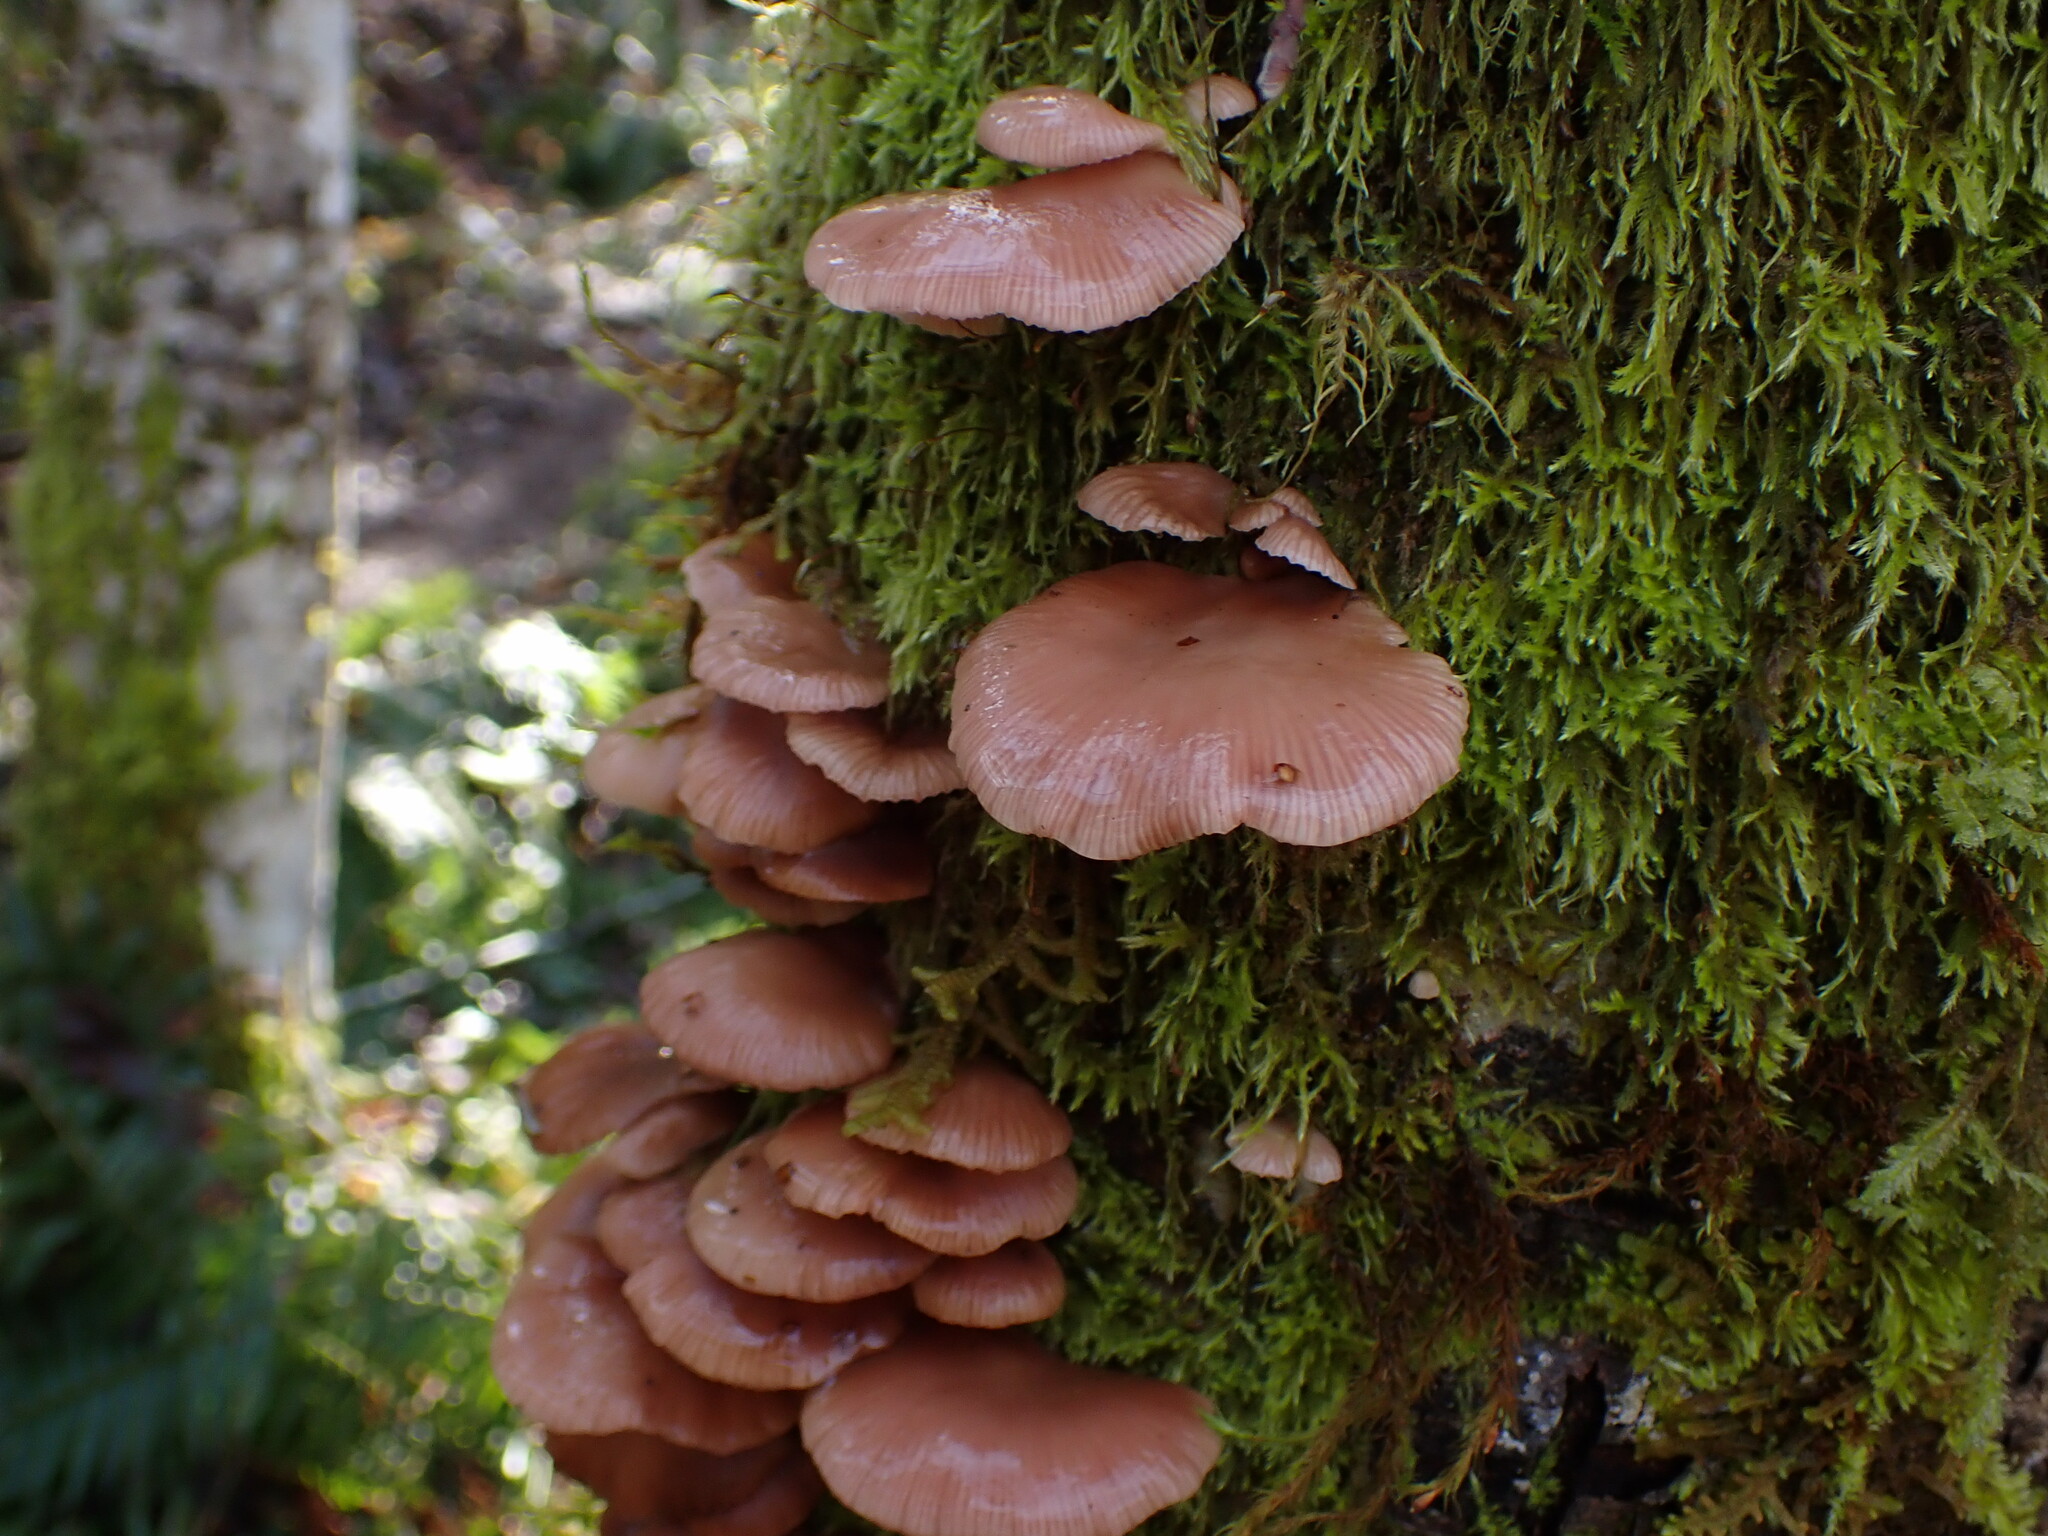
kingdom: Fungi
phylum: Basidiomycota
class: Agaricomycetes
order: Agaricales
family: Mycenaceae
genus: Panellus
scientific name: Panellus longinquus
